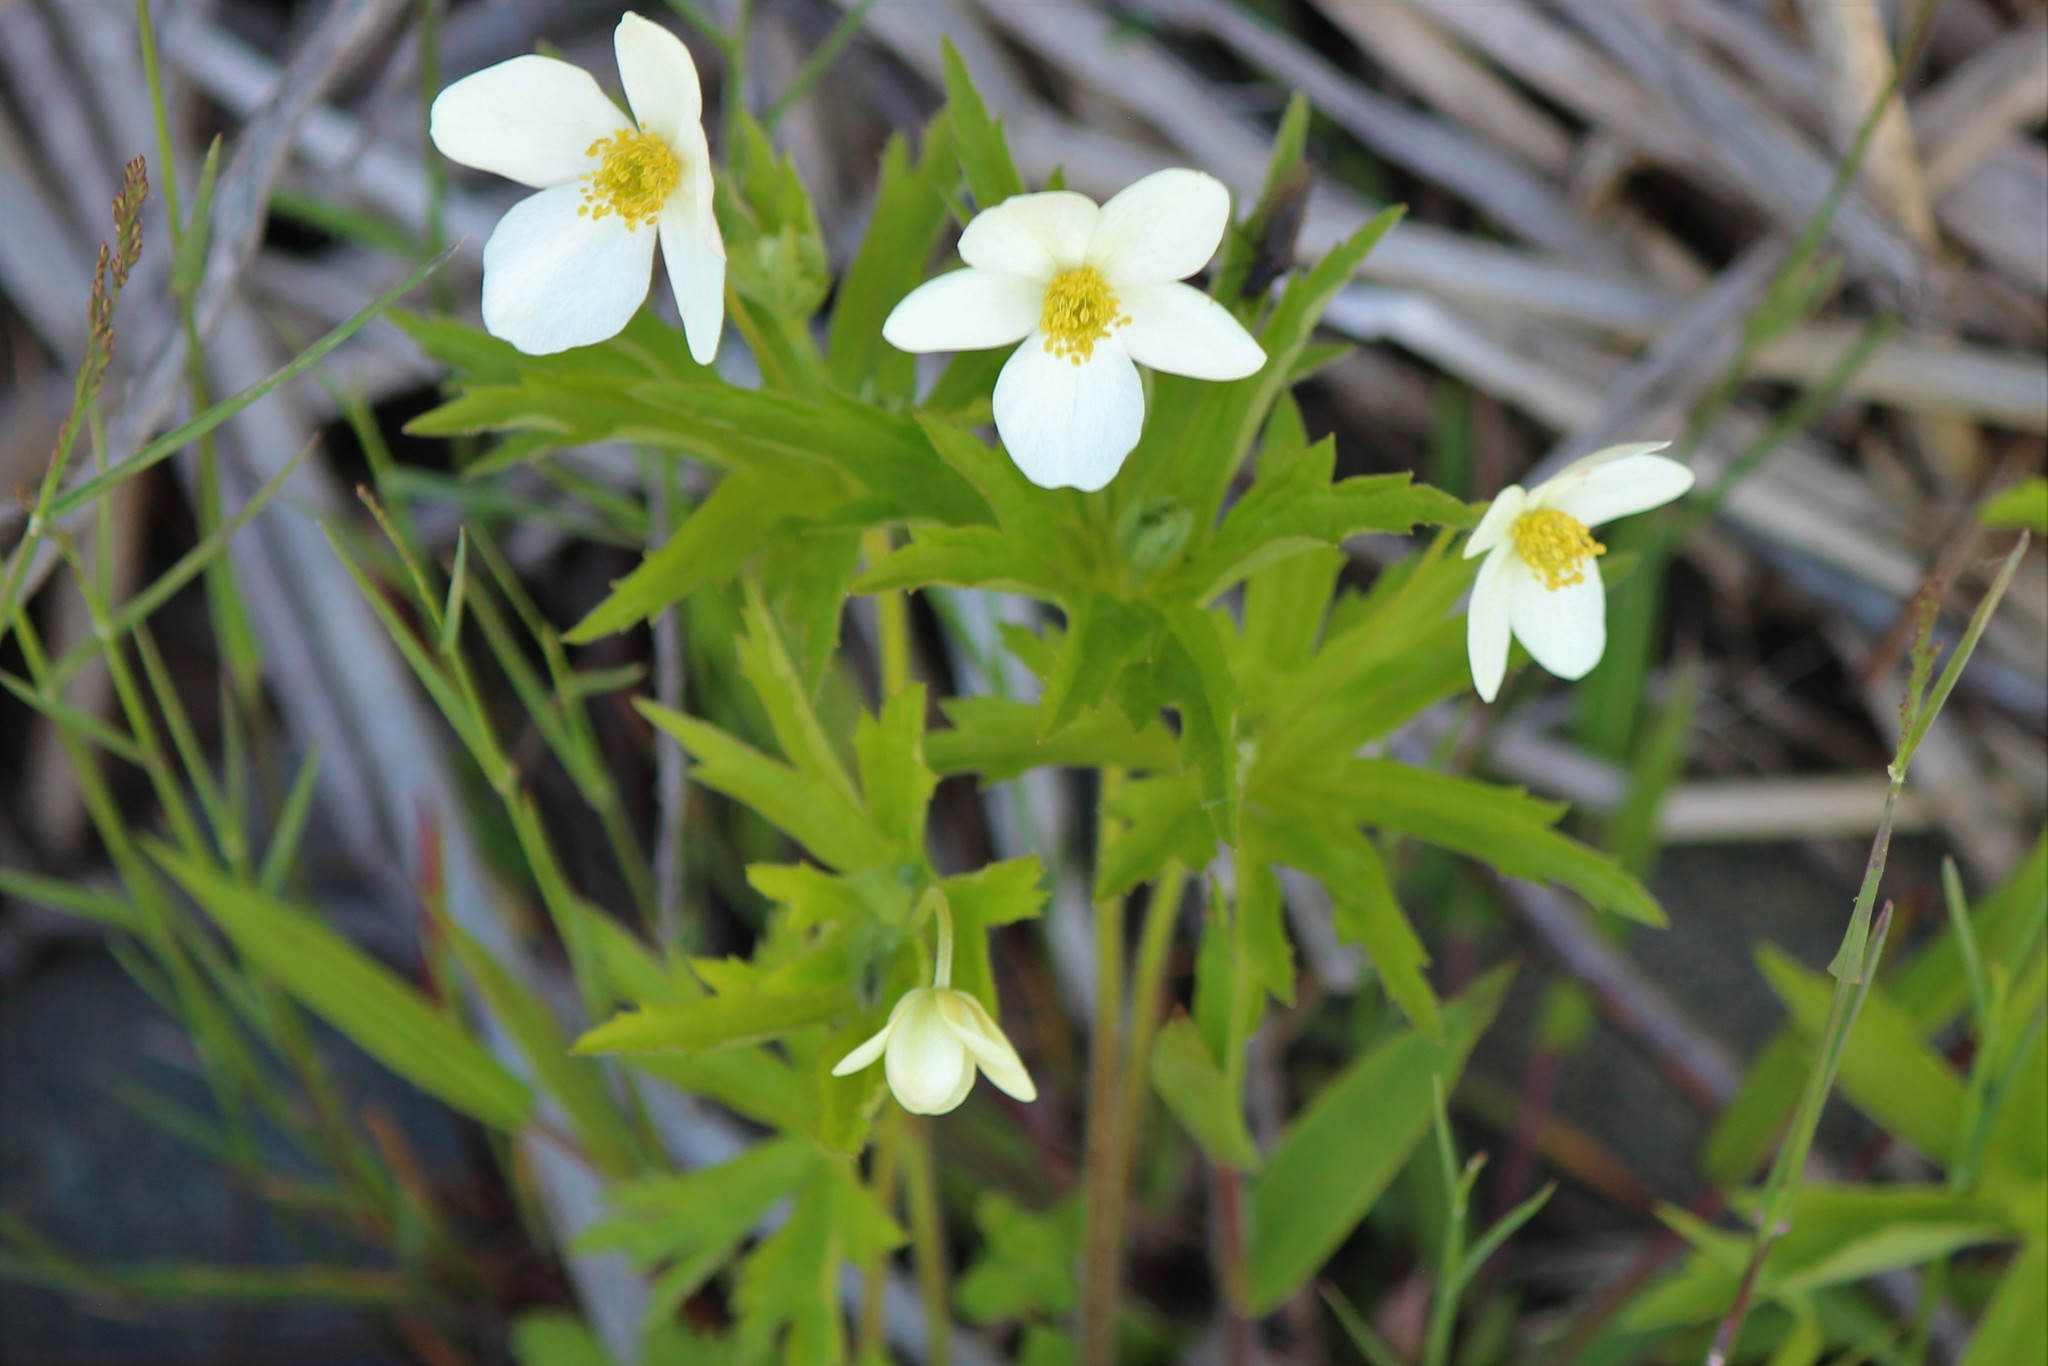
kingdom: Plantae
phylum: Tracheophyta
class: Magnoliopsida
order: Ranunculales
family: Ranunculaceae
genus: Anemonastrum
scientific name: Anemonastrum canadense
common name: Canada anemone
